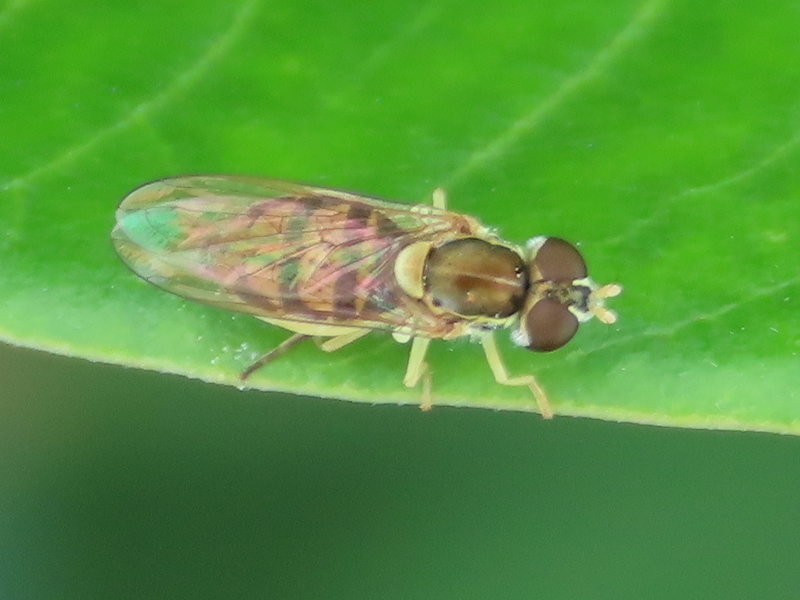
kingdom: Animalia
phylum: Arthropoda
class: Insecta
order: Diptera
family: Syrphidae
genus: Toxomerus
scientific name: Toxomerus marginatus
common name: Syrphid fly
